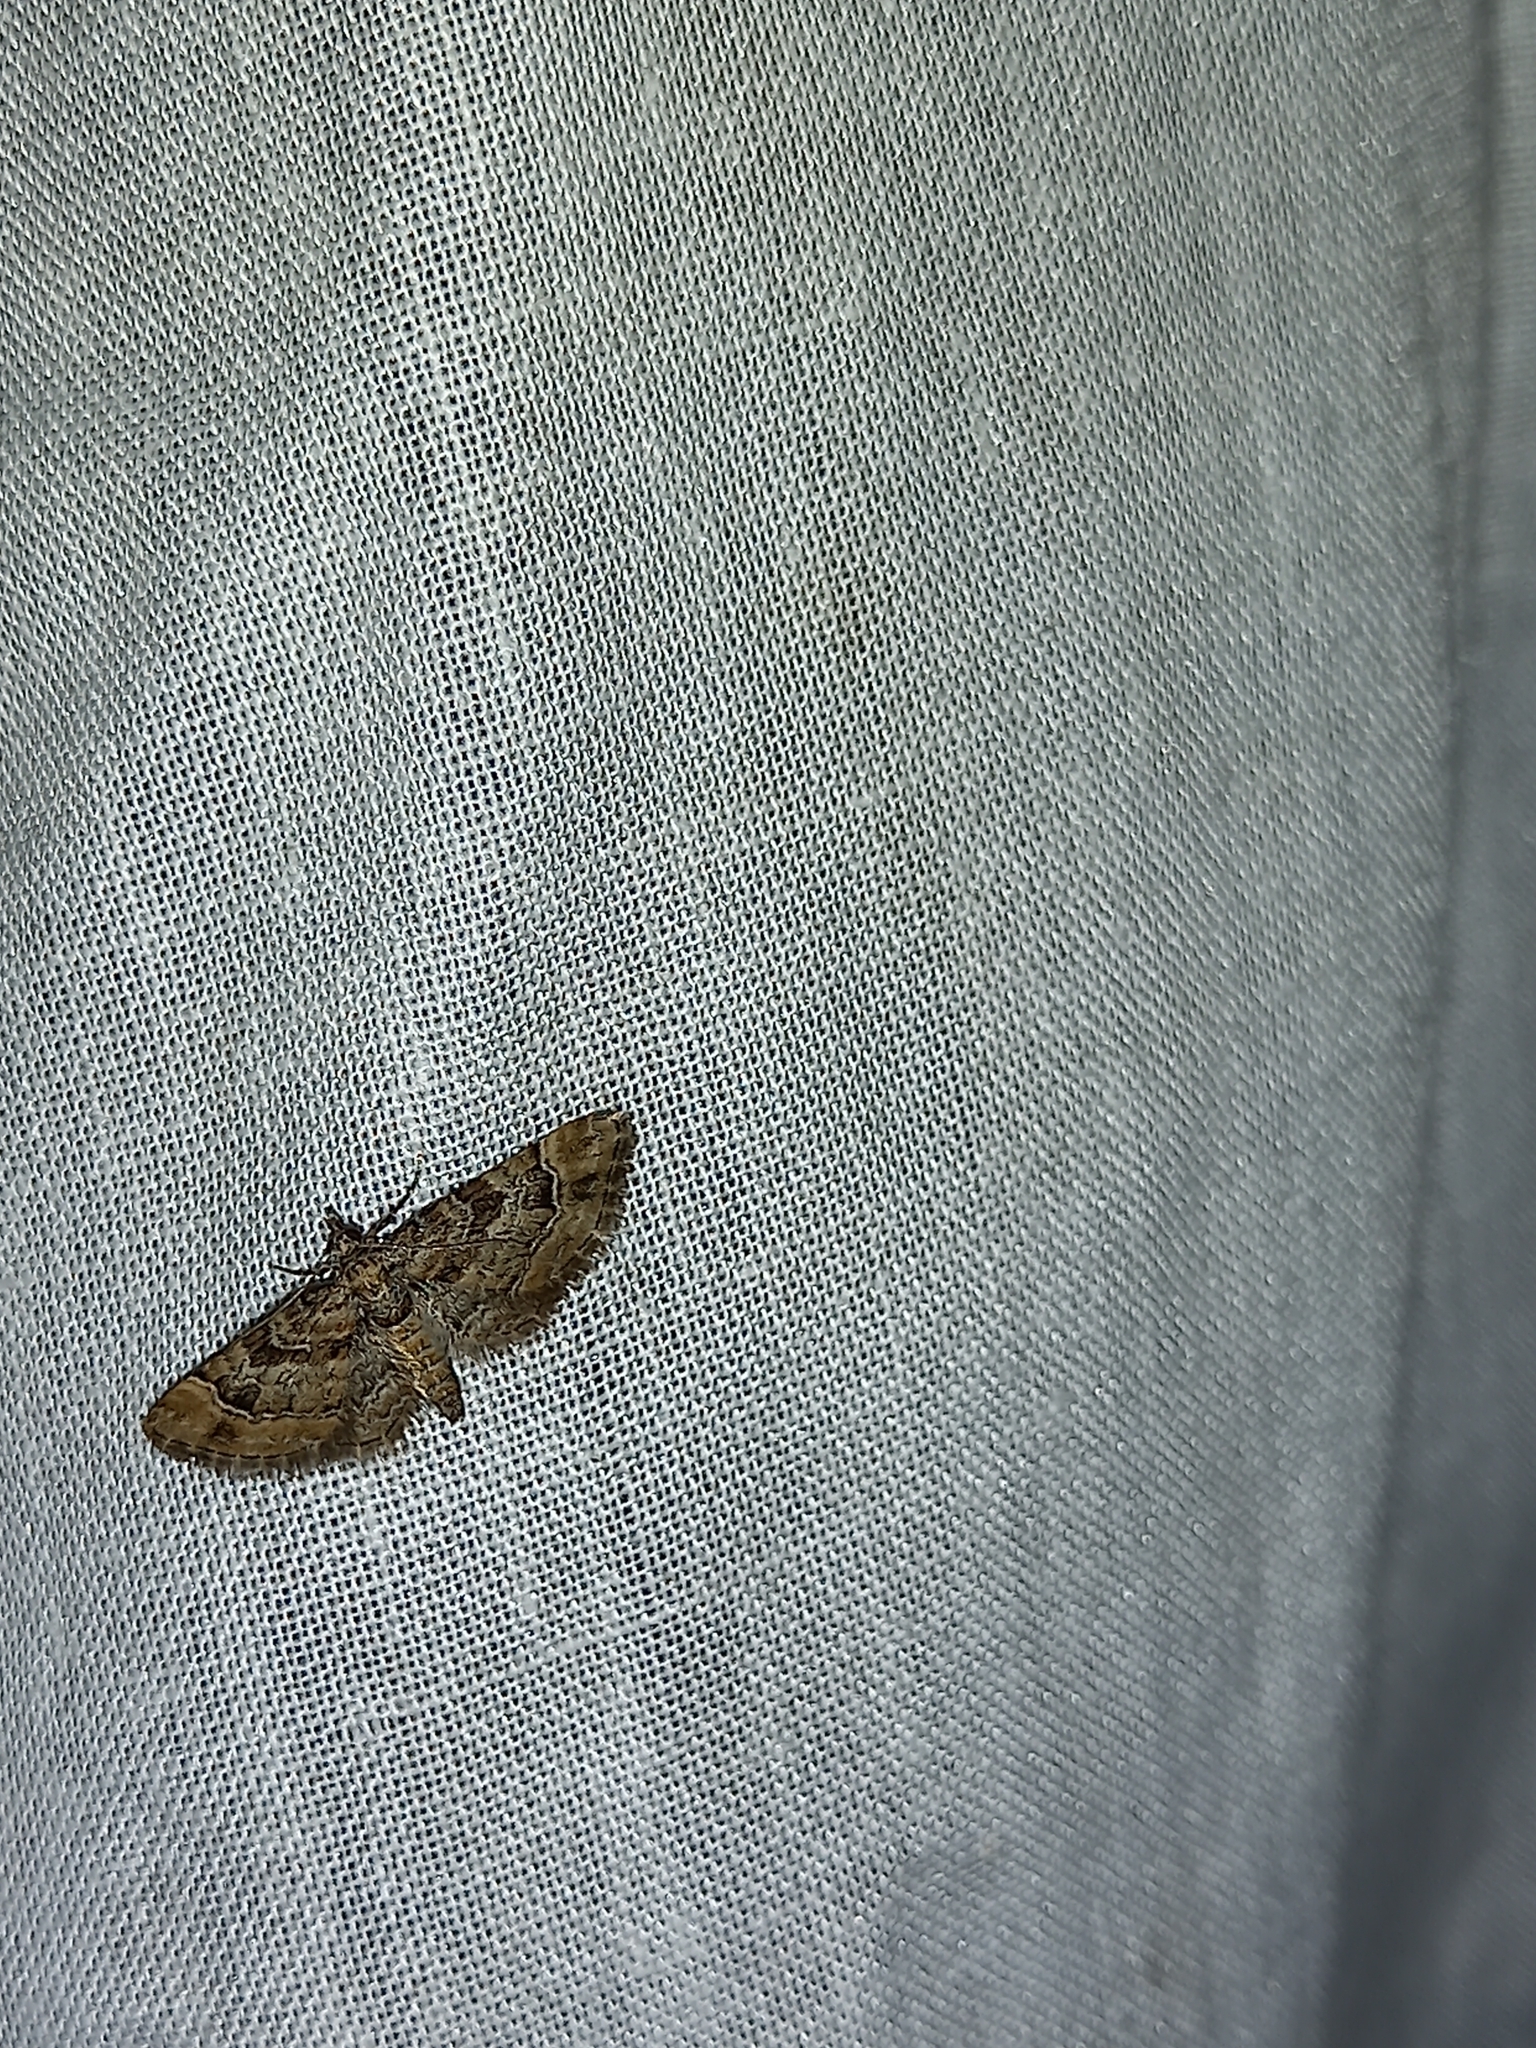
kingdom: Animalia
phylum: Arthropoda
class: Insecta
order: Lepidoptera
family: Geometridae
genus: Gymnoscelis
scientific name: Gymnoscelis rufifasciata
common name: Double-striped pug
